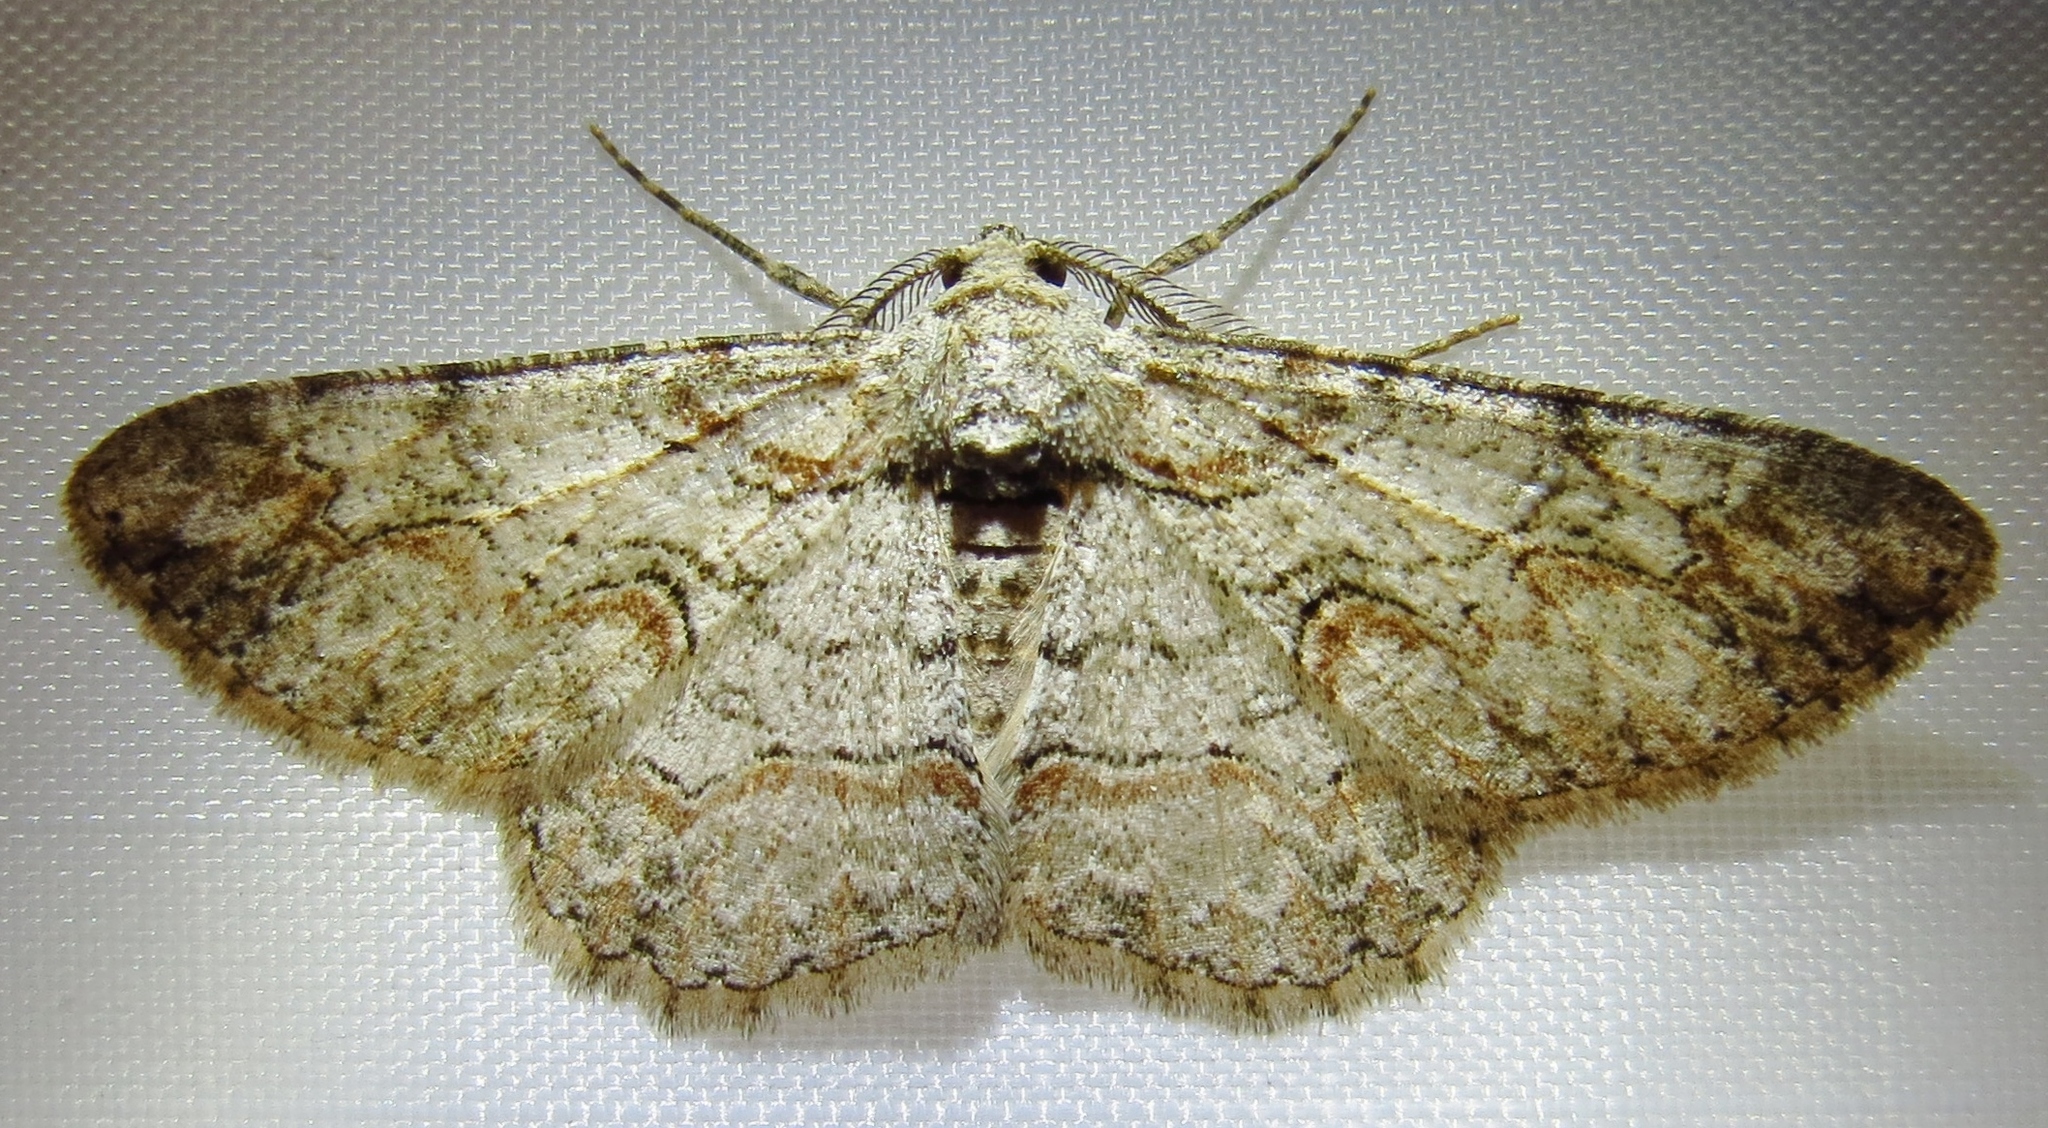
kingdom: Animalia
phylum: Arthropoda
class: Insecta
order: Lepidoptera
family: Geometridae
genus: Iridopsis
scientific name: Iridopsis defectaria
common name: Brown-shaded gray
